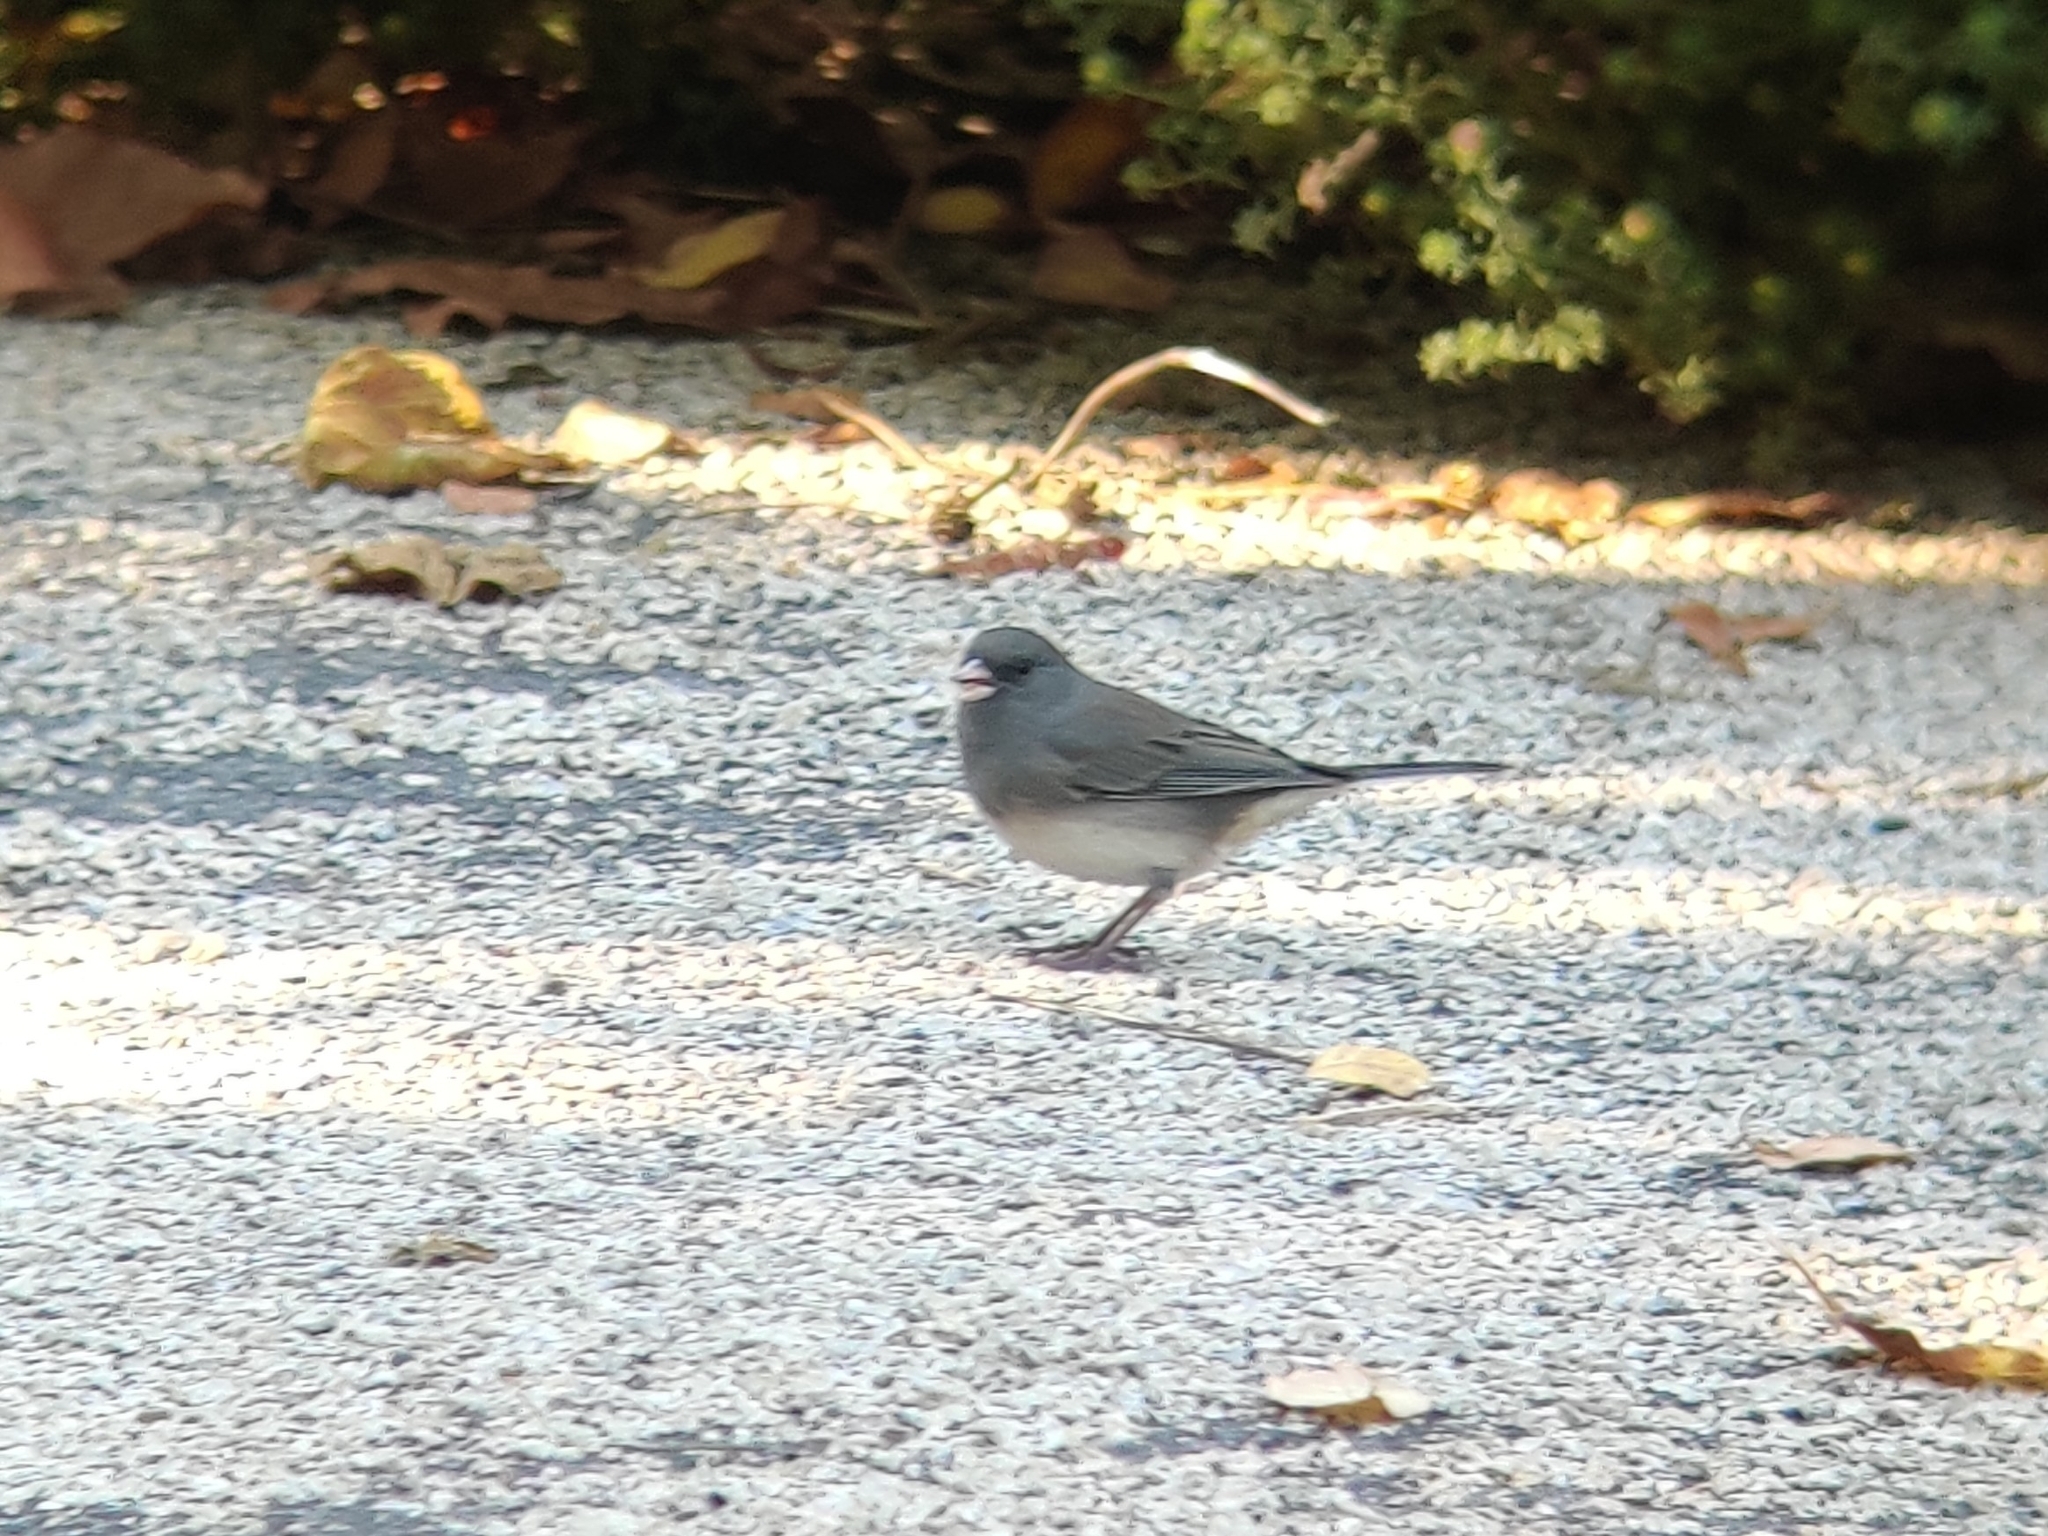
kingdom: Animalia
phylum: Chordata
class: Aves
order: Passeriformes
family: Passerellidae
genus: Junco
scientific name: Junco hyemalis
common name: Dark-eyed junco
